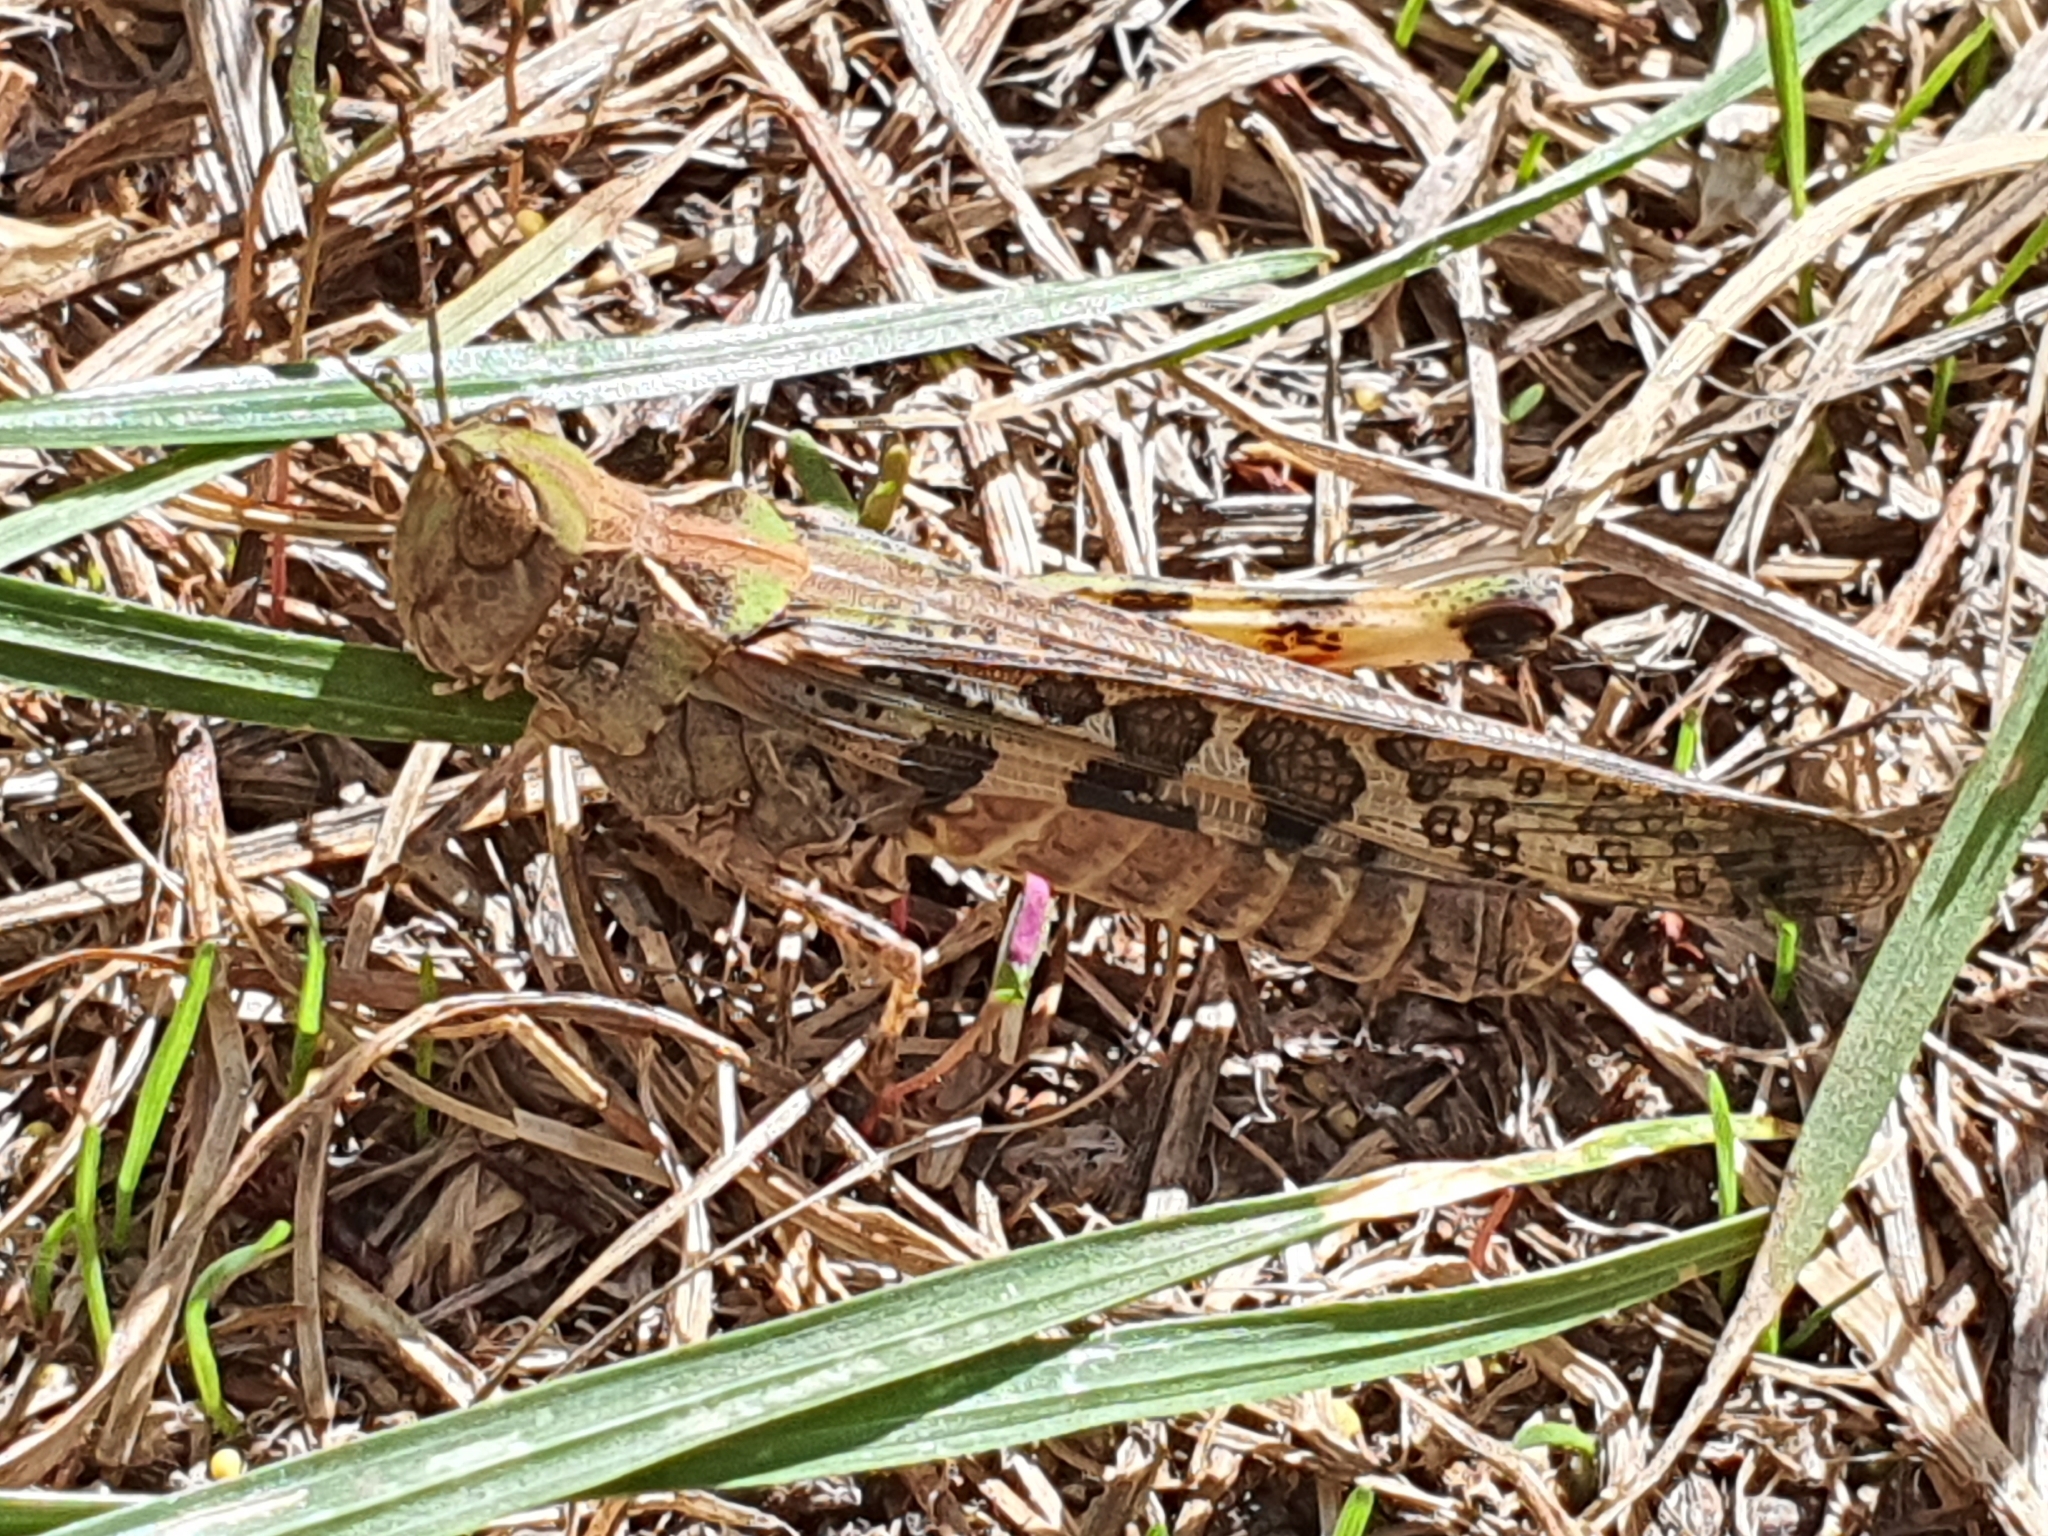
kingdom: Animalia
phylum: Arthropoda
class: Insecta
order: Orthoptera
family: Acrididae
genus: Chortoicetes
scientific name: Chortoicetes terminifera
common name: Australian plague locust
